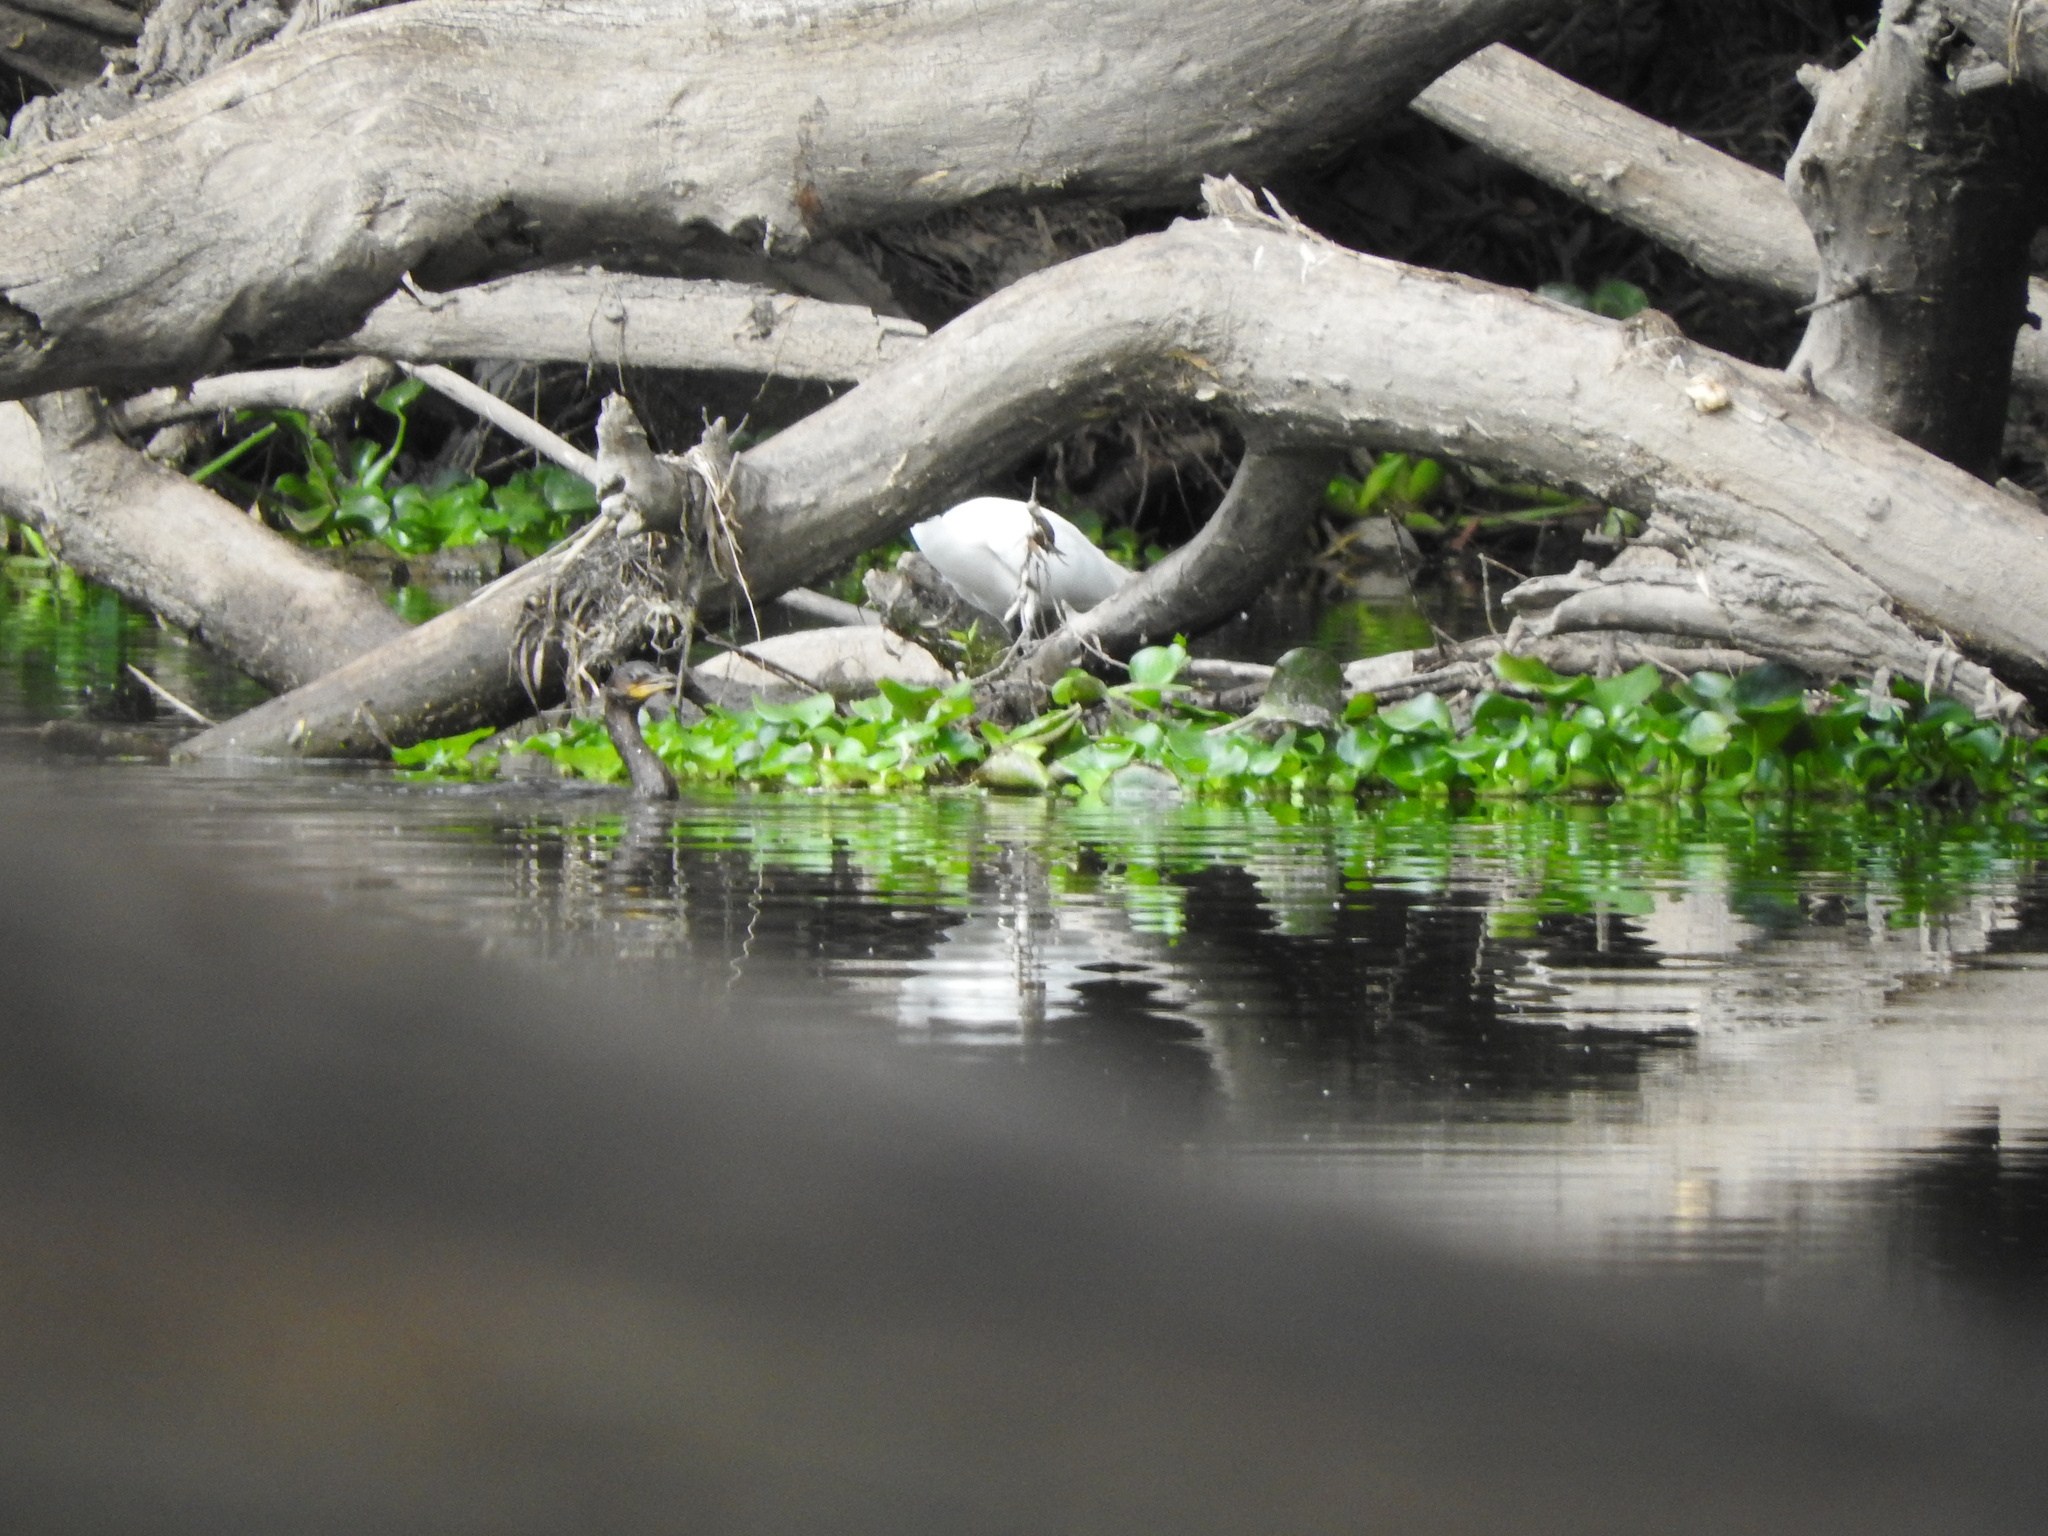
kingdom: Animalia
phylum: Chordata
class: Aves
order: Pelecaniformes
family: Ardeidae
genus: Egretta
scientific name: Egretta
